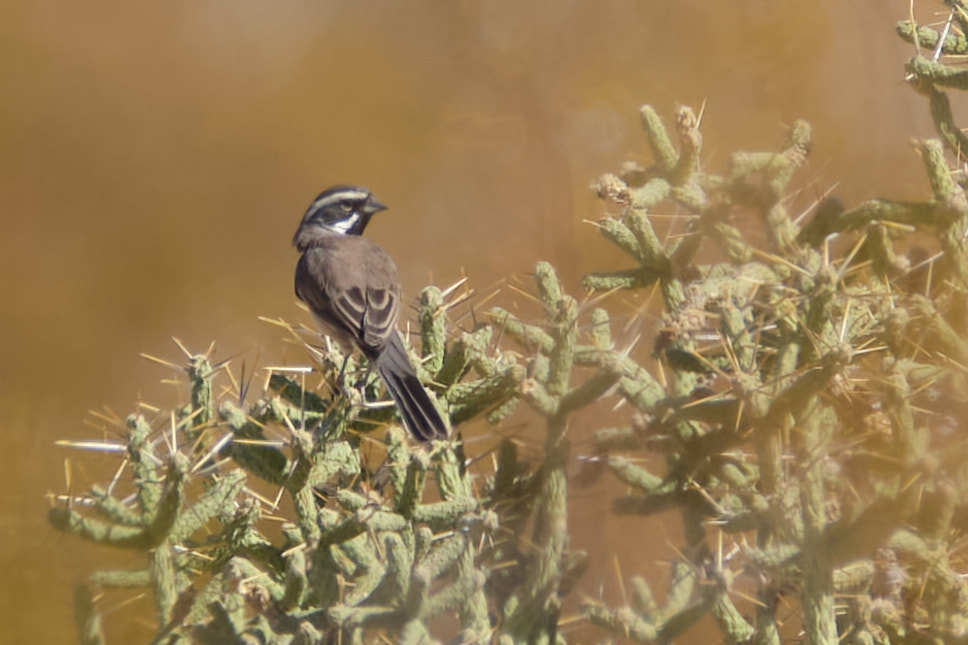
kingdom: Animalia
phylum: Chordata
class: Aves
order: Passeriformes
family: Passerellidae
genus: Amphispiza
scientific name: Amphispiza bilineata
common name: Black-throated sparrow
